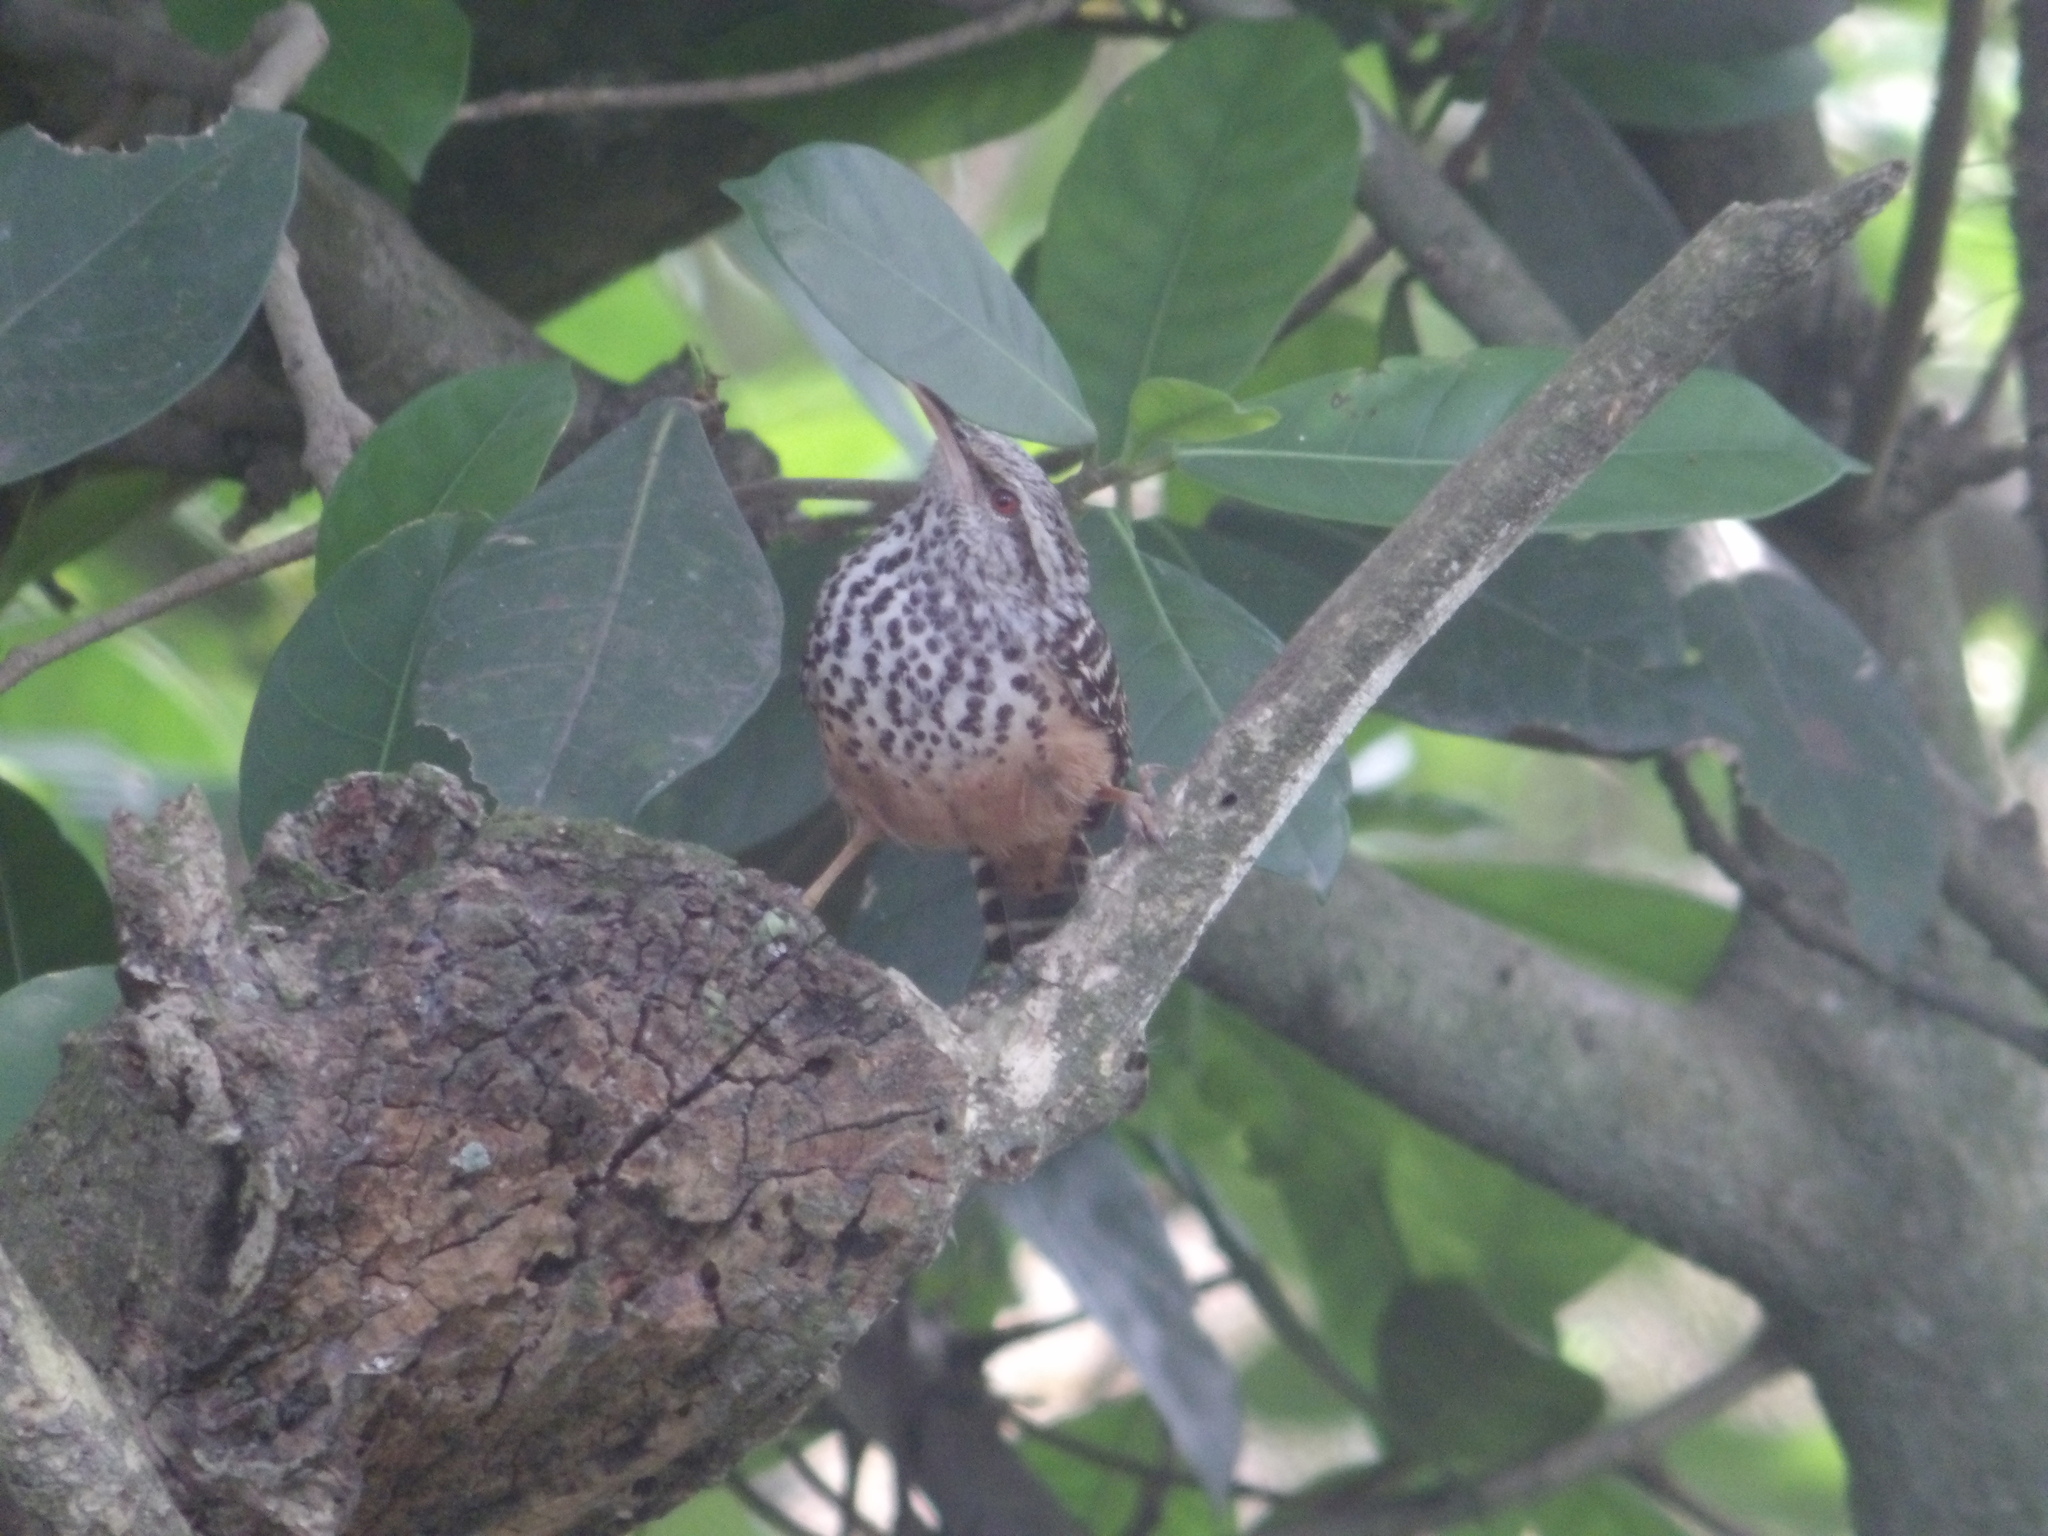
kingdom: Animalia
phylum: Chordata
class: Aves
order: Passeriformes
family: Troglodytidae
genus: Campylorhynchus
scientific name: Campylorhynchus zonatus
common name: Band-backed wren
